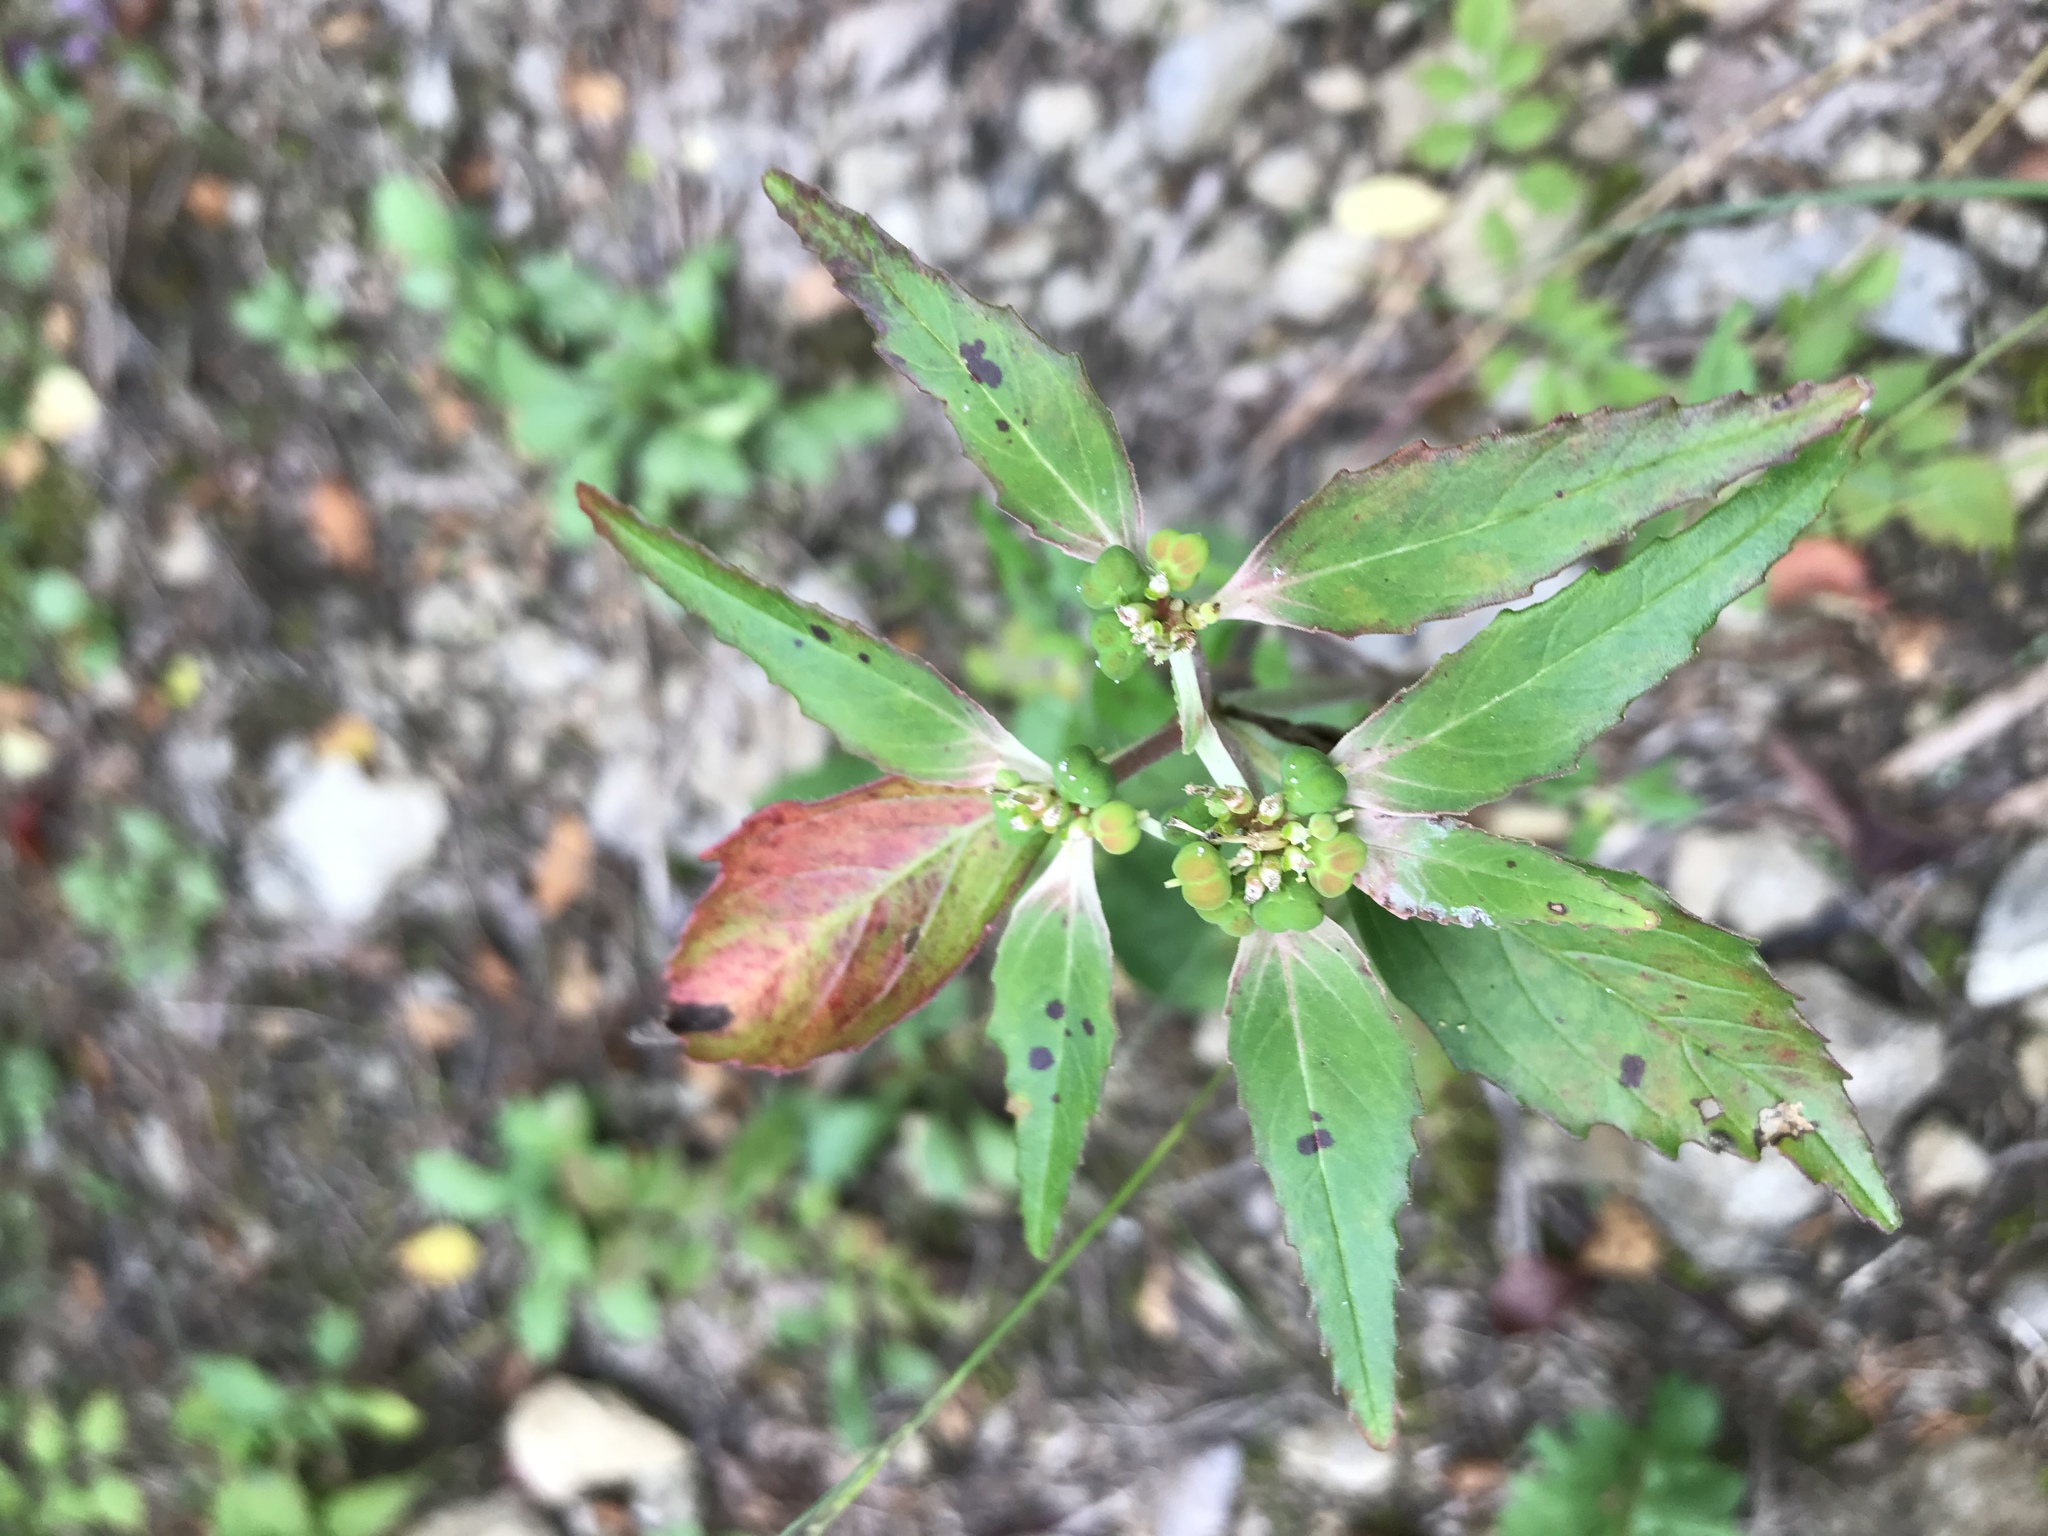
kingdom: Plantae
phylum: Tracheophyta
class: Magnoliopsida
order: Malpighiales
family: Euphorbiaceae
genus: Euphorbia
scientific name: Euphorbia dentata
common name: Dentate spurge
